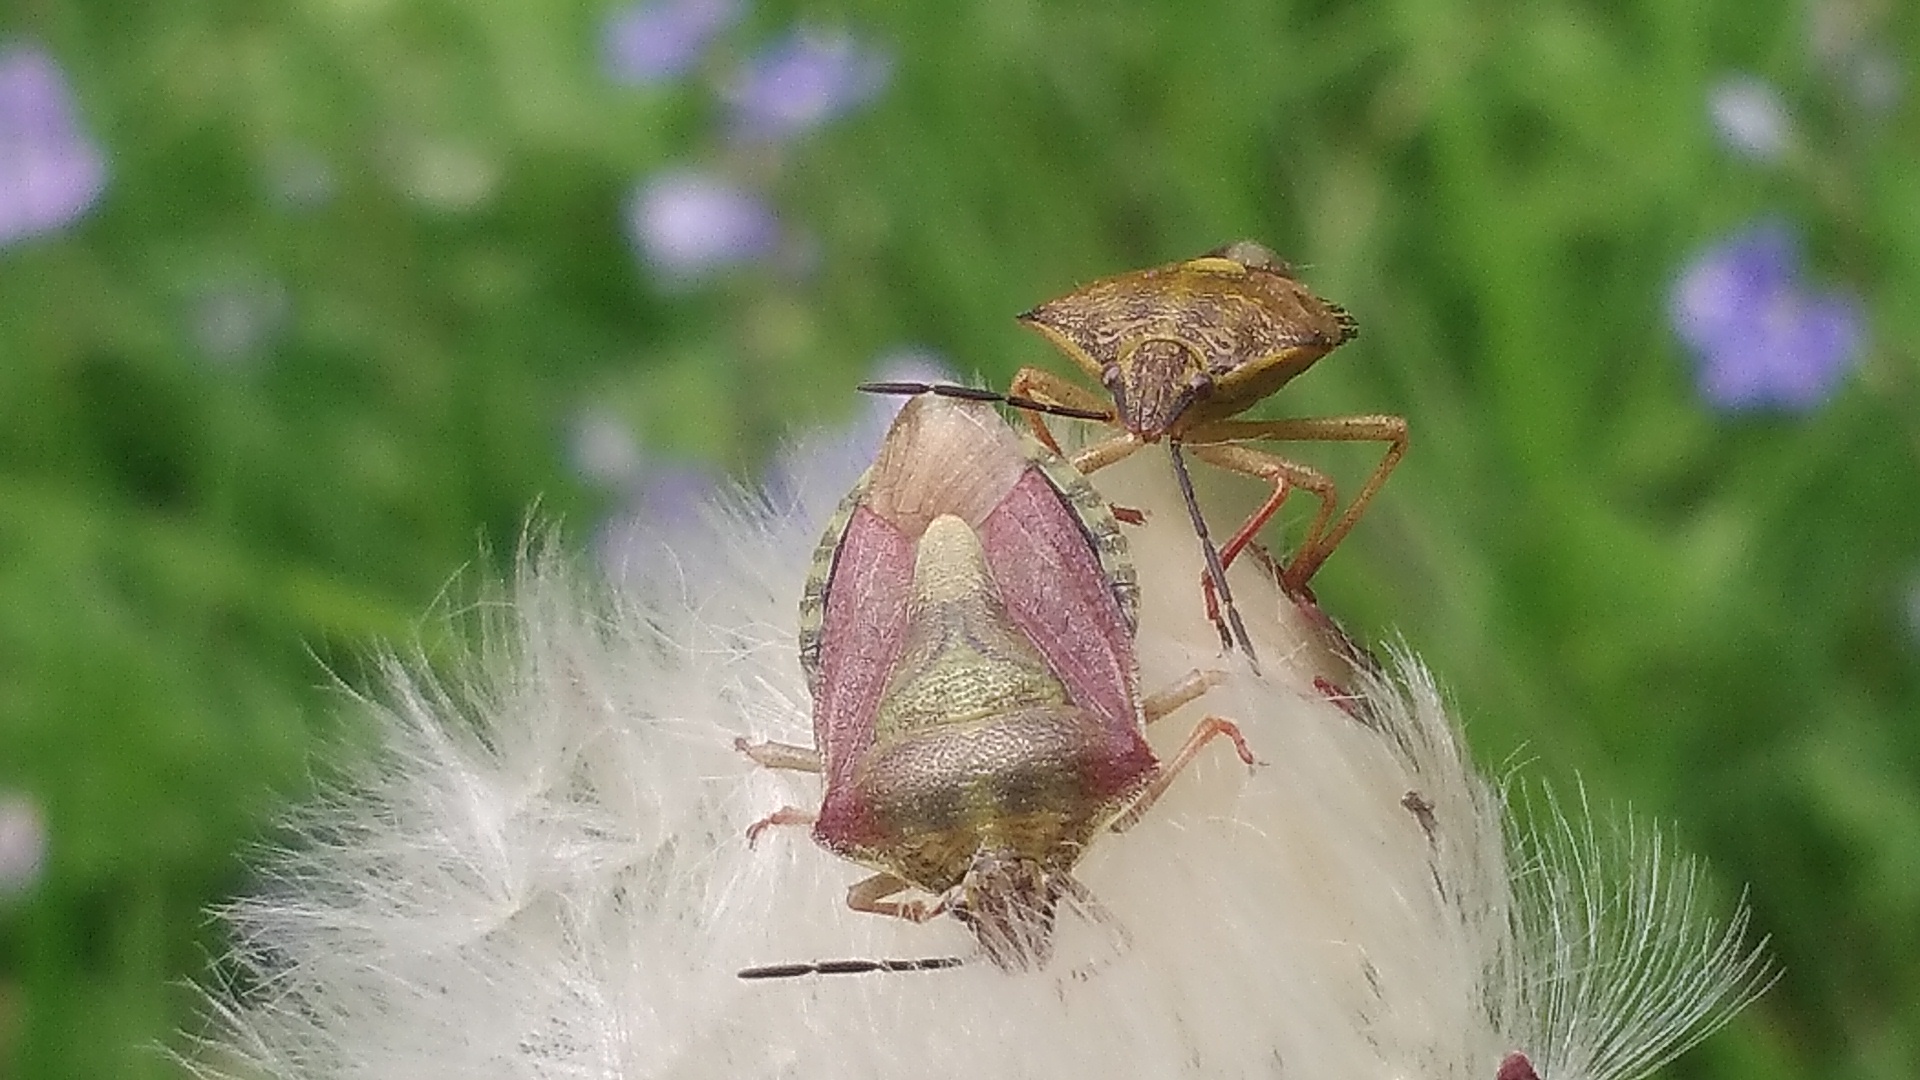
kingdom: Animalia
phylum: Arthropoda
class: Insecta
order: Hemiptera
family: Pentatomidae
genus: Carpocoris
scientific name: Carpocoris purpureipennis
